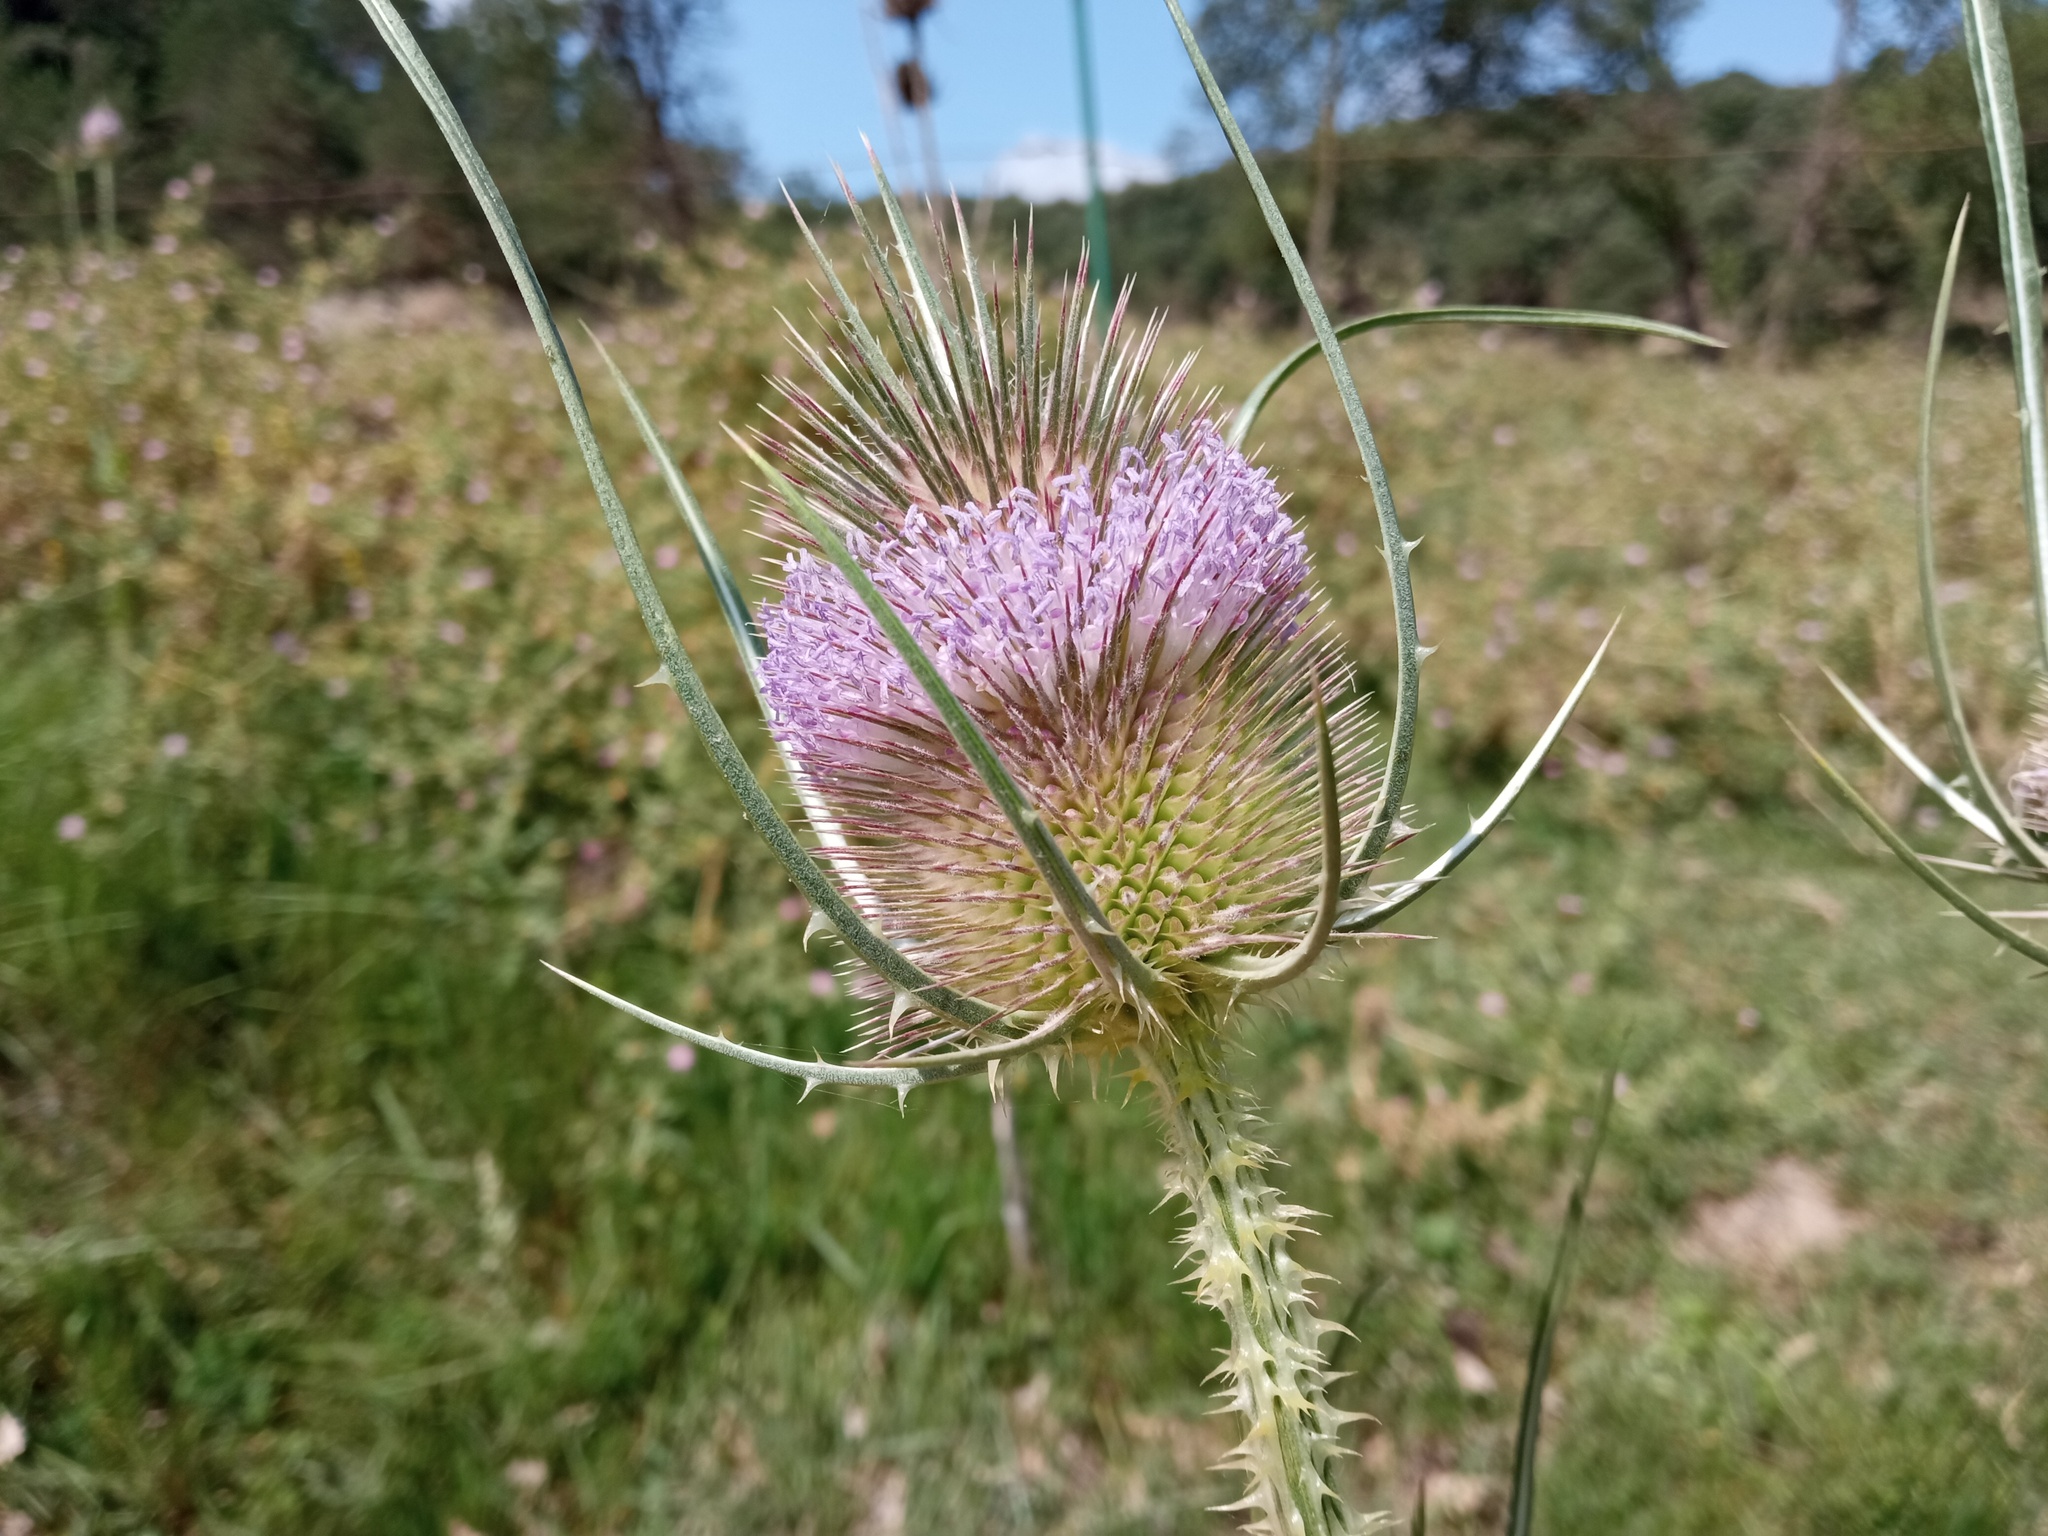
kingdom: Plantae
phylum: Tracheophyta
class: Magnoliopsida
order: Dipsacales
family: Caprifoliaceae
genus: Dipsacus
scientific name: Dipsacus fullonum
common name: Teasel
